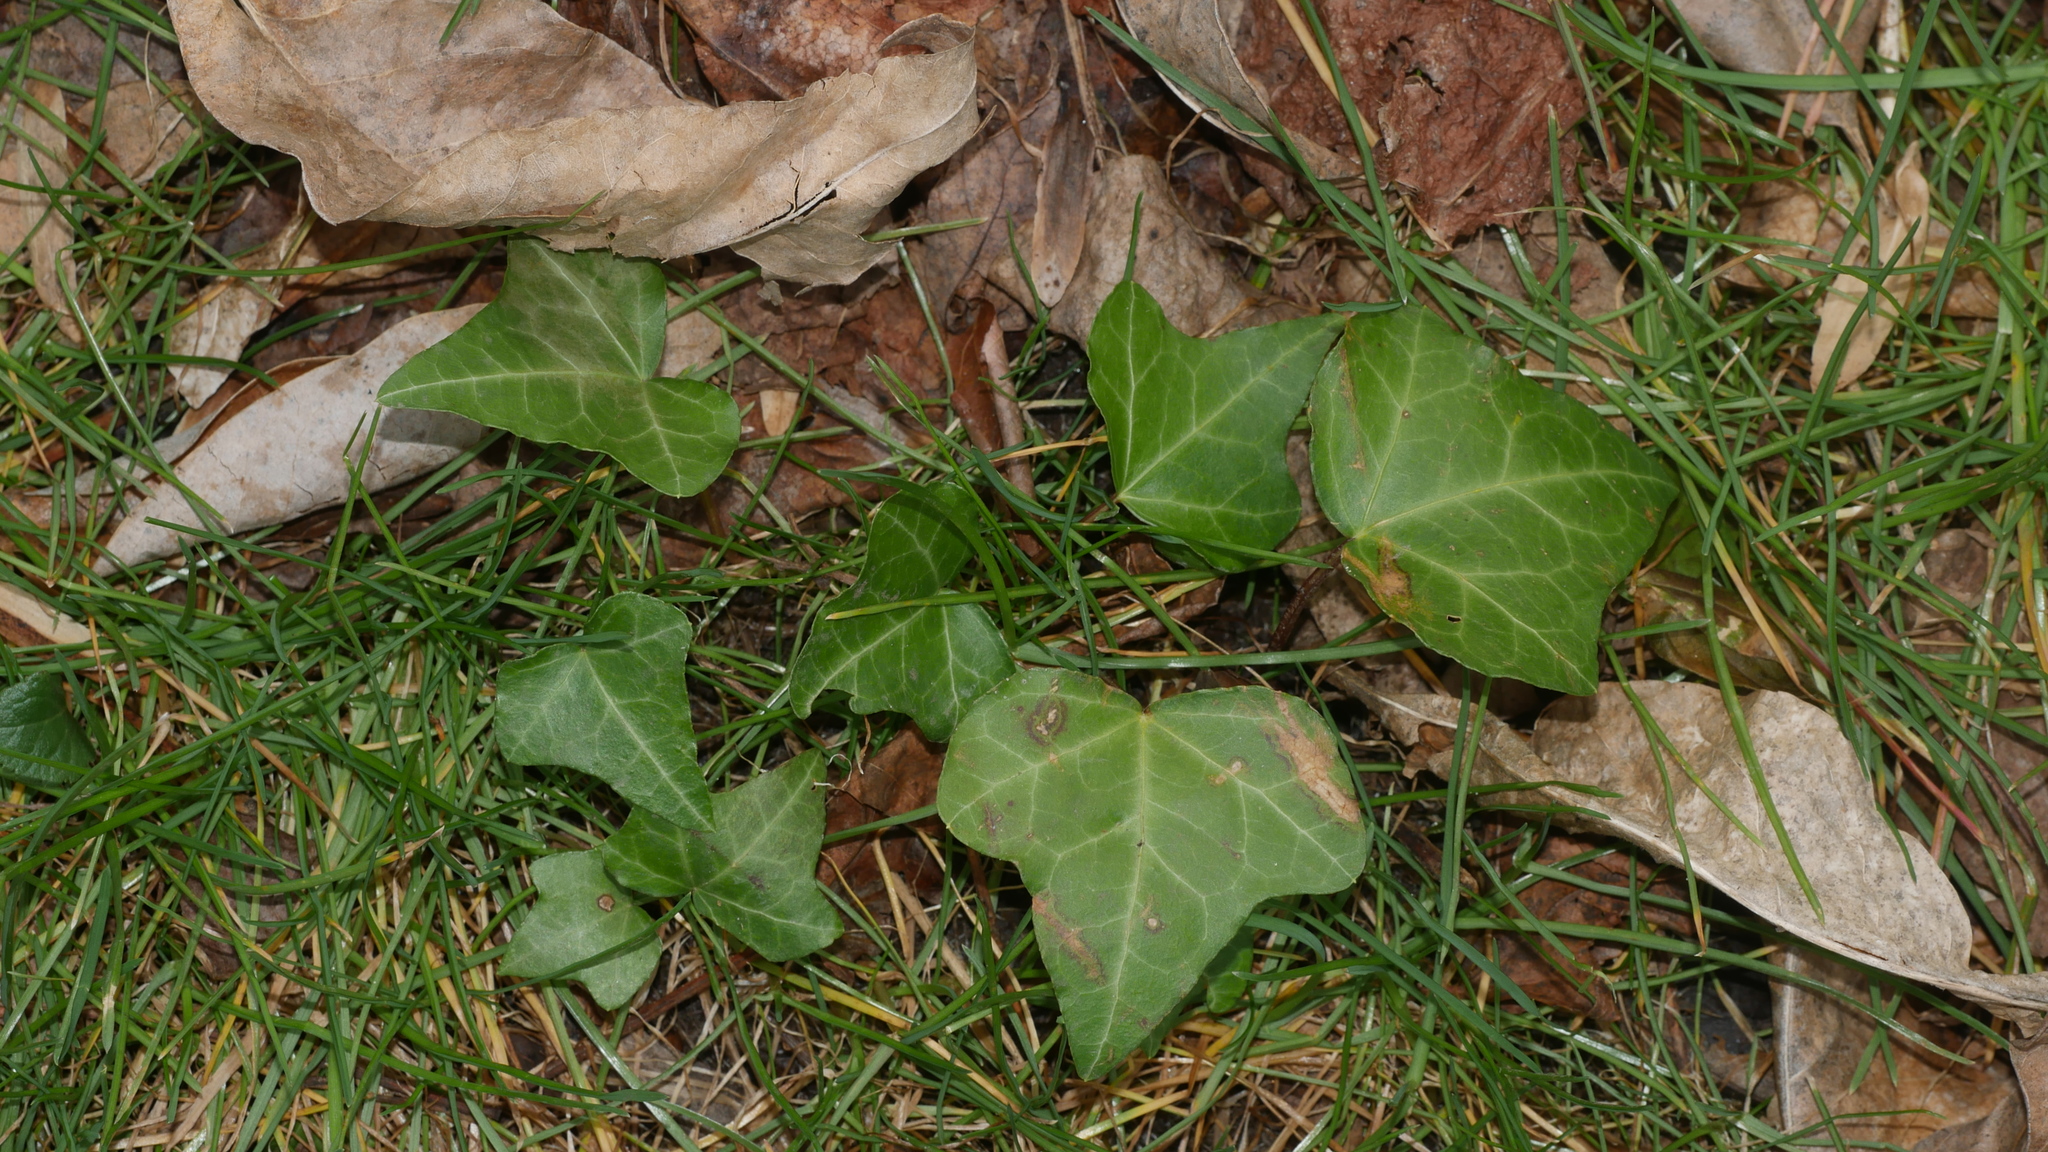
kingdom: Plantae
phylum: Tracheophyta
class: Magnoliopsida
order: Apiales
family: Araliaceae
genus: Hedera
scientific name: Hedera helix
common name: Ivy
